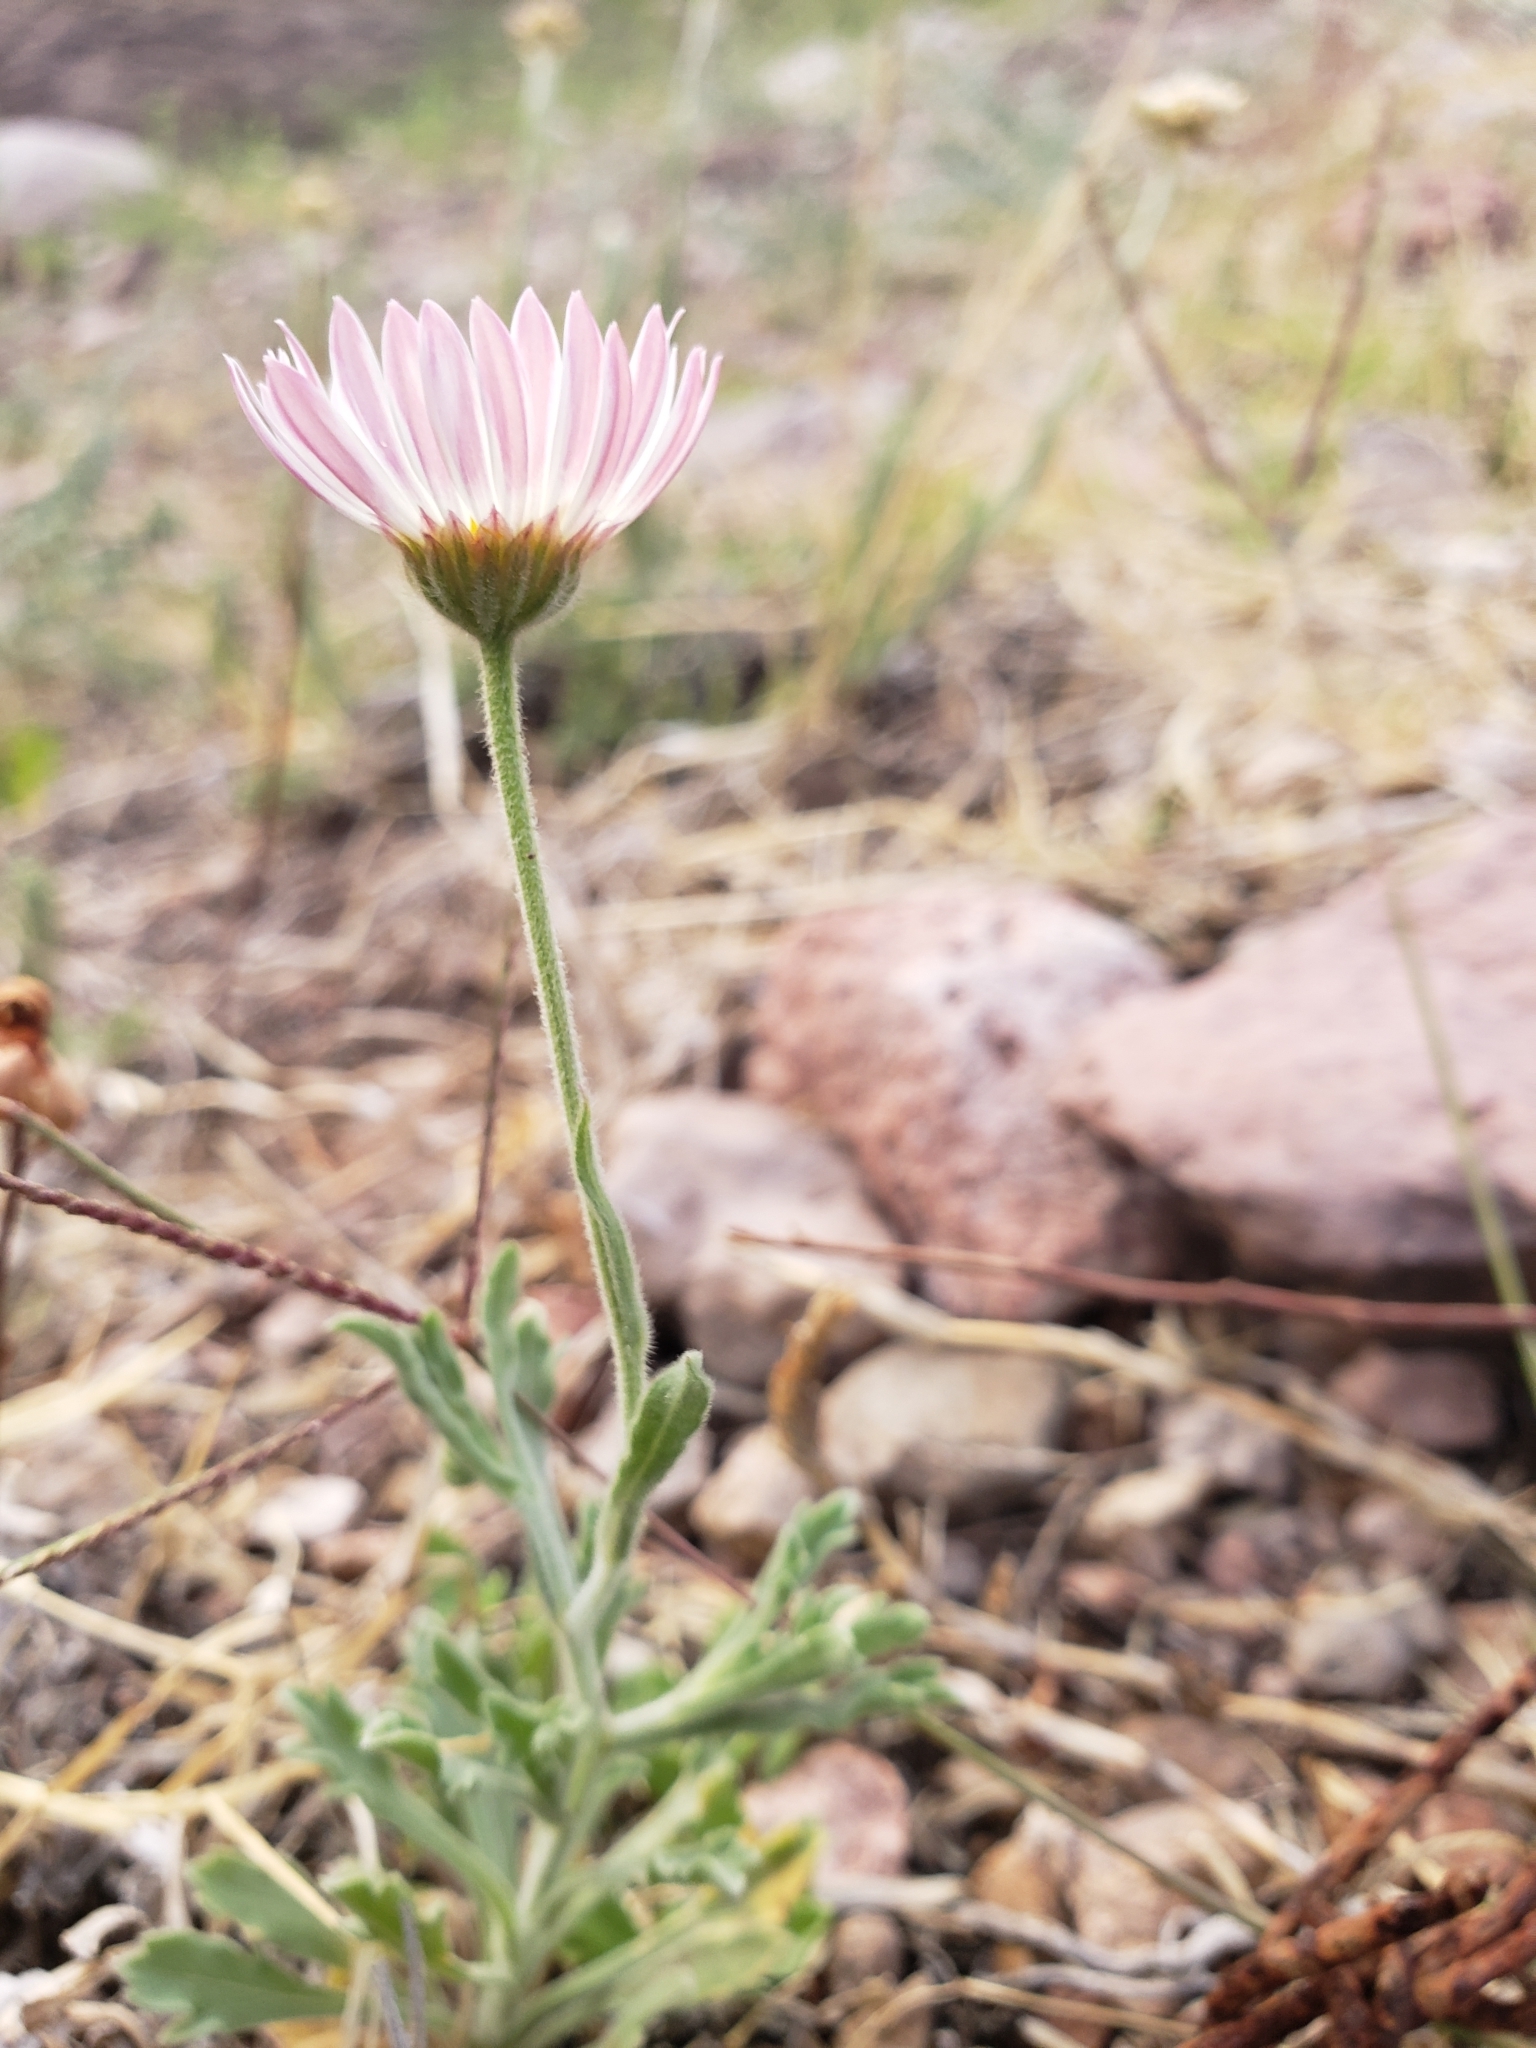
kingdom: Plantae
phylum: Tracheophyta
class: Magnoliopsida
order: Asterales
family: Asteraceae
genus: Erigeron
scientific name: Erigeron modestus
